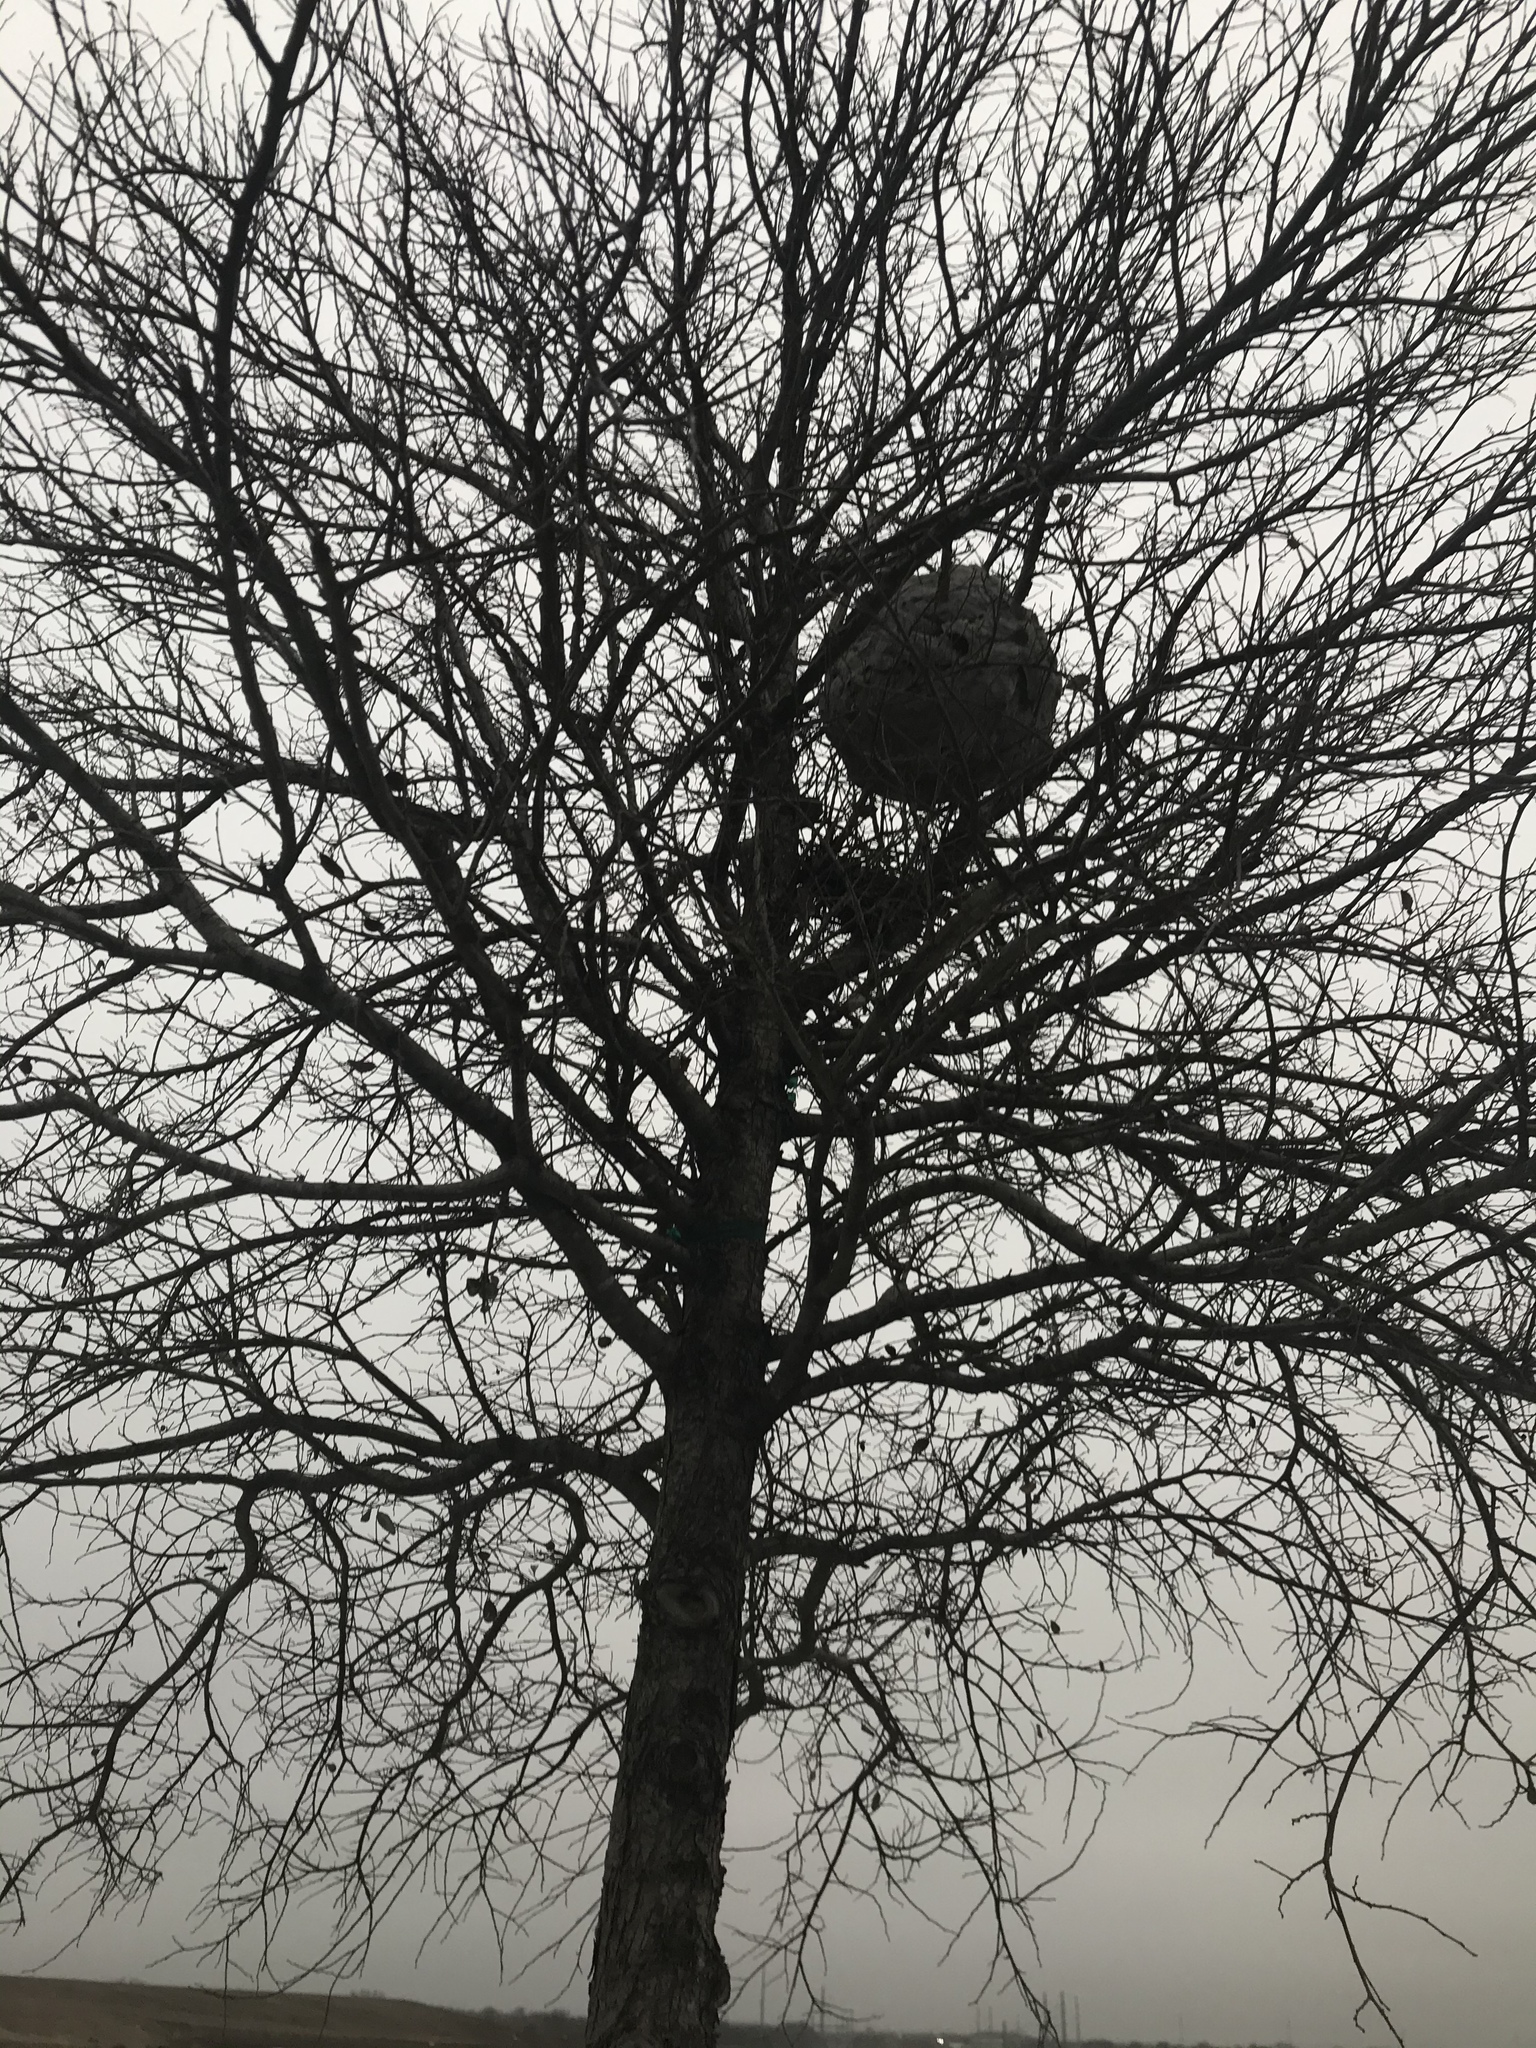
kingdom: Animalia
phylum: Arthropoda
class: Insecta
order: Hymenoptera
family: Vespidae
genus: Brachygastra
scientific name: Brachygastra mellifica
